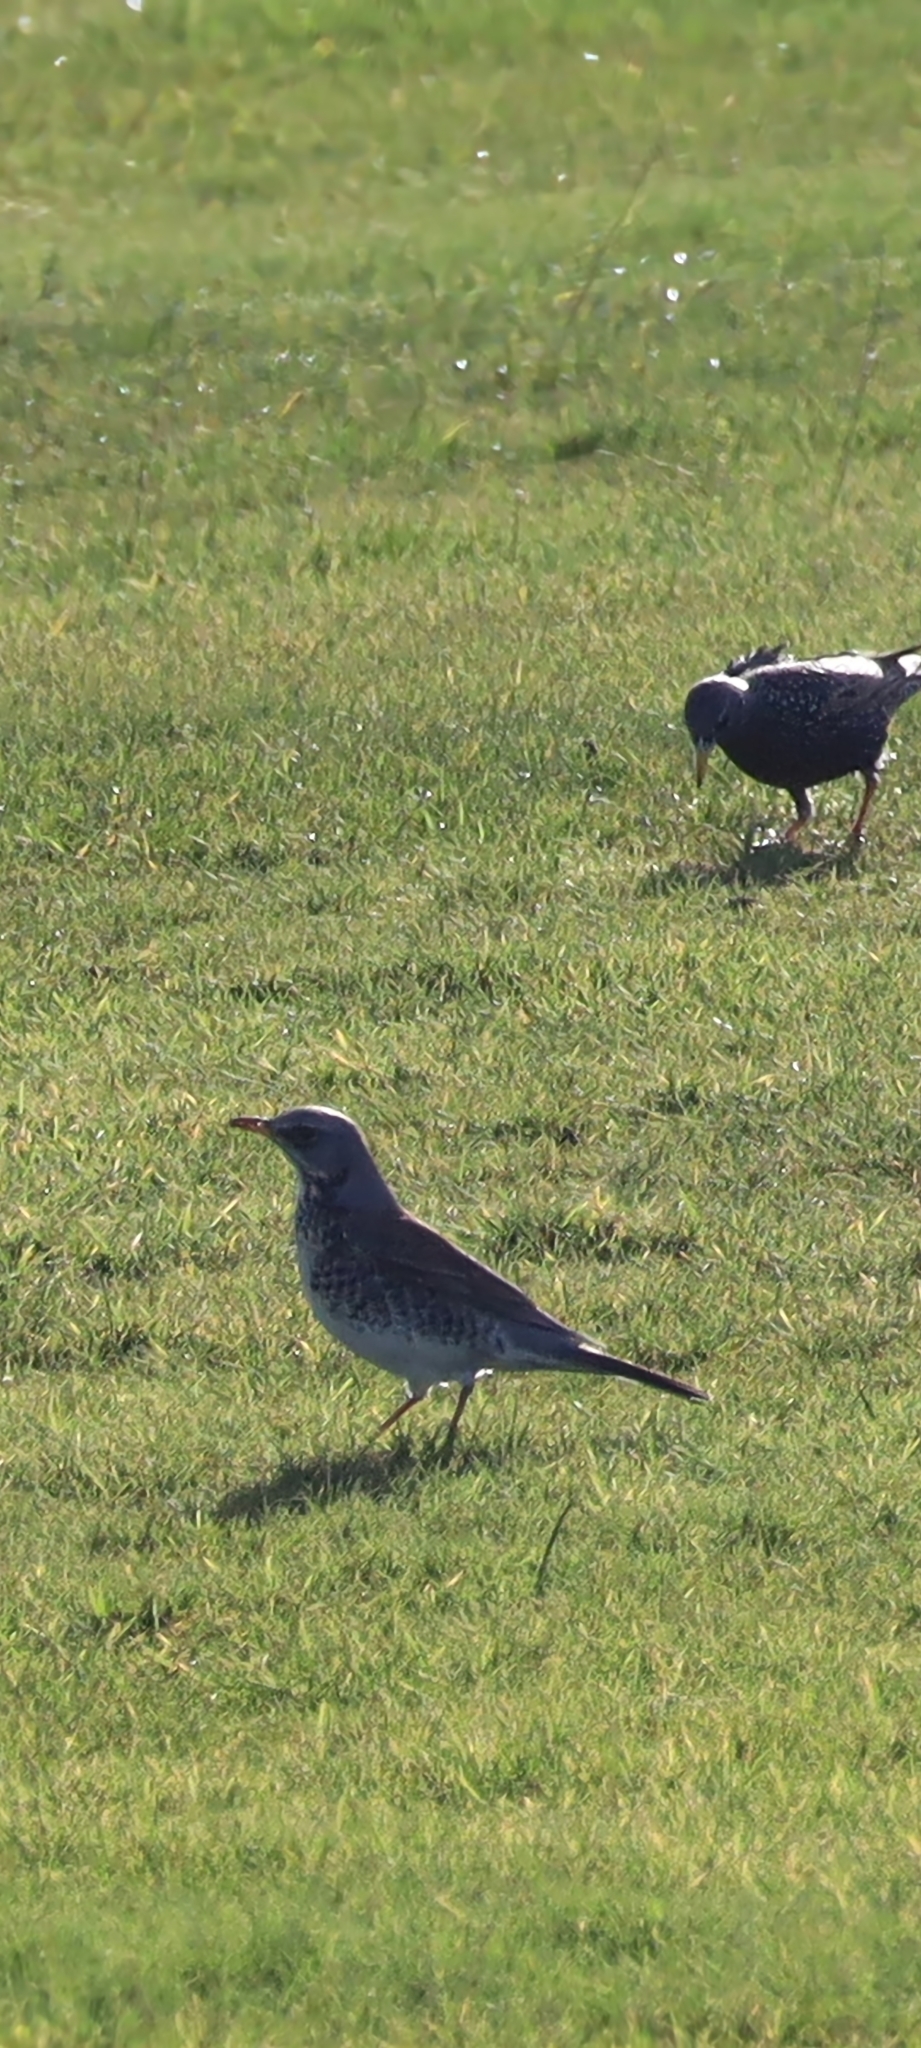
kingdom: Animalia
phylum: Chordata
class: Aves
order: Passeriformes
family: Turdidae
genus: Turdus
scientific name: Turdus pilaris
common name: Fieldfare
